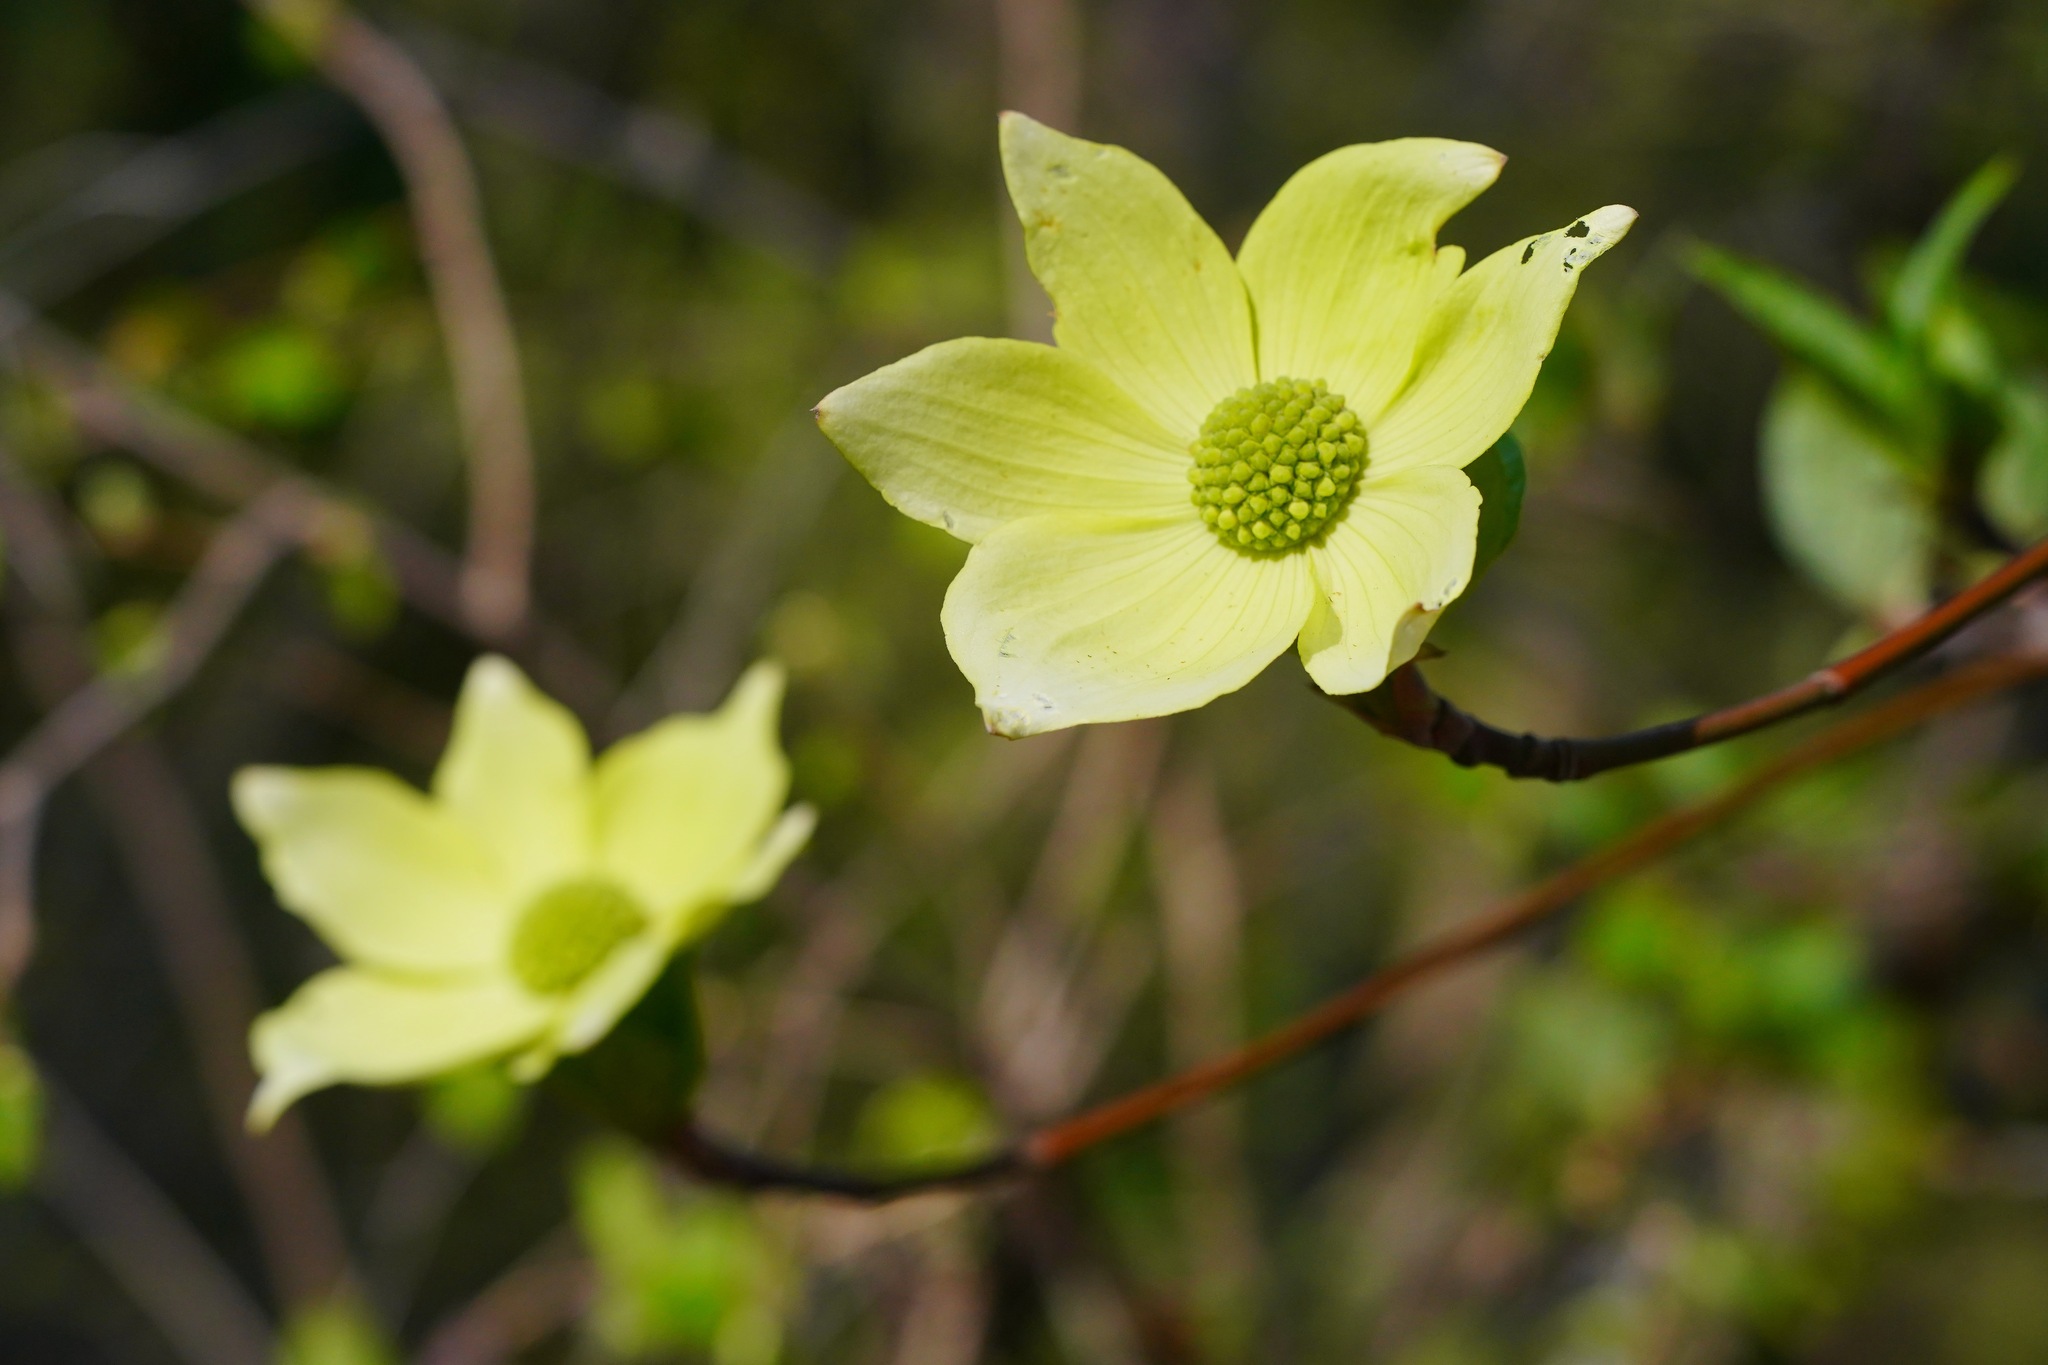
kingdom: Plantae
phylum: Tracheophyta
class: Magnoliopsida
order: Cornales
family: Cornaceae
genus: Cornus
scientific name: Cornus nuttallii
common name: Pacific dogwood
